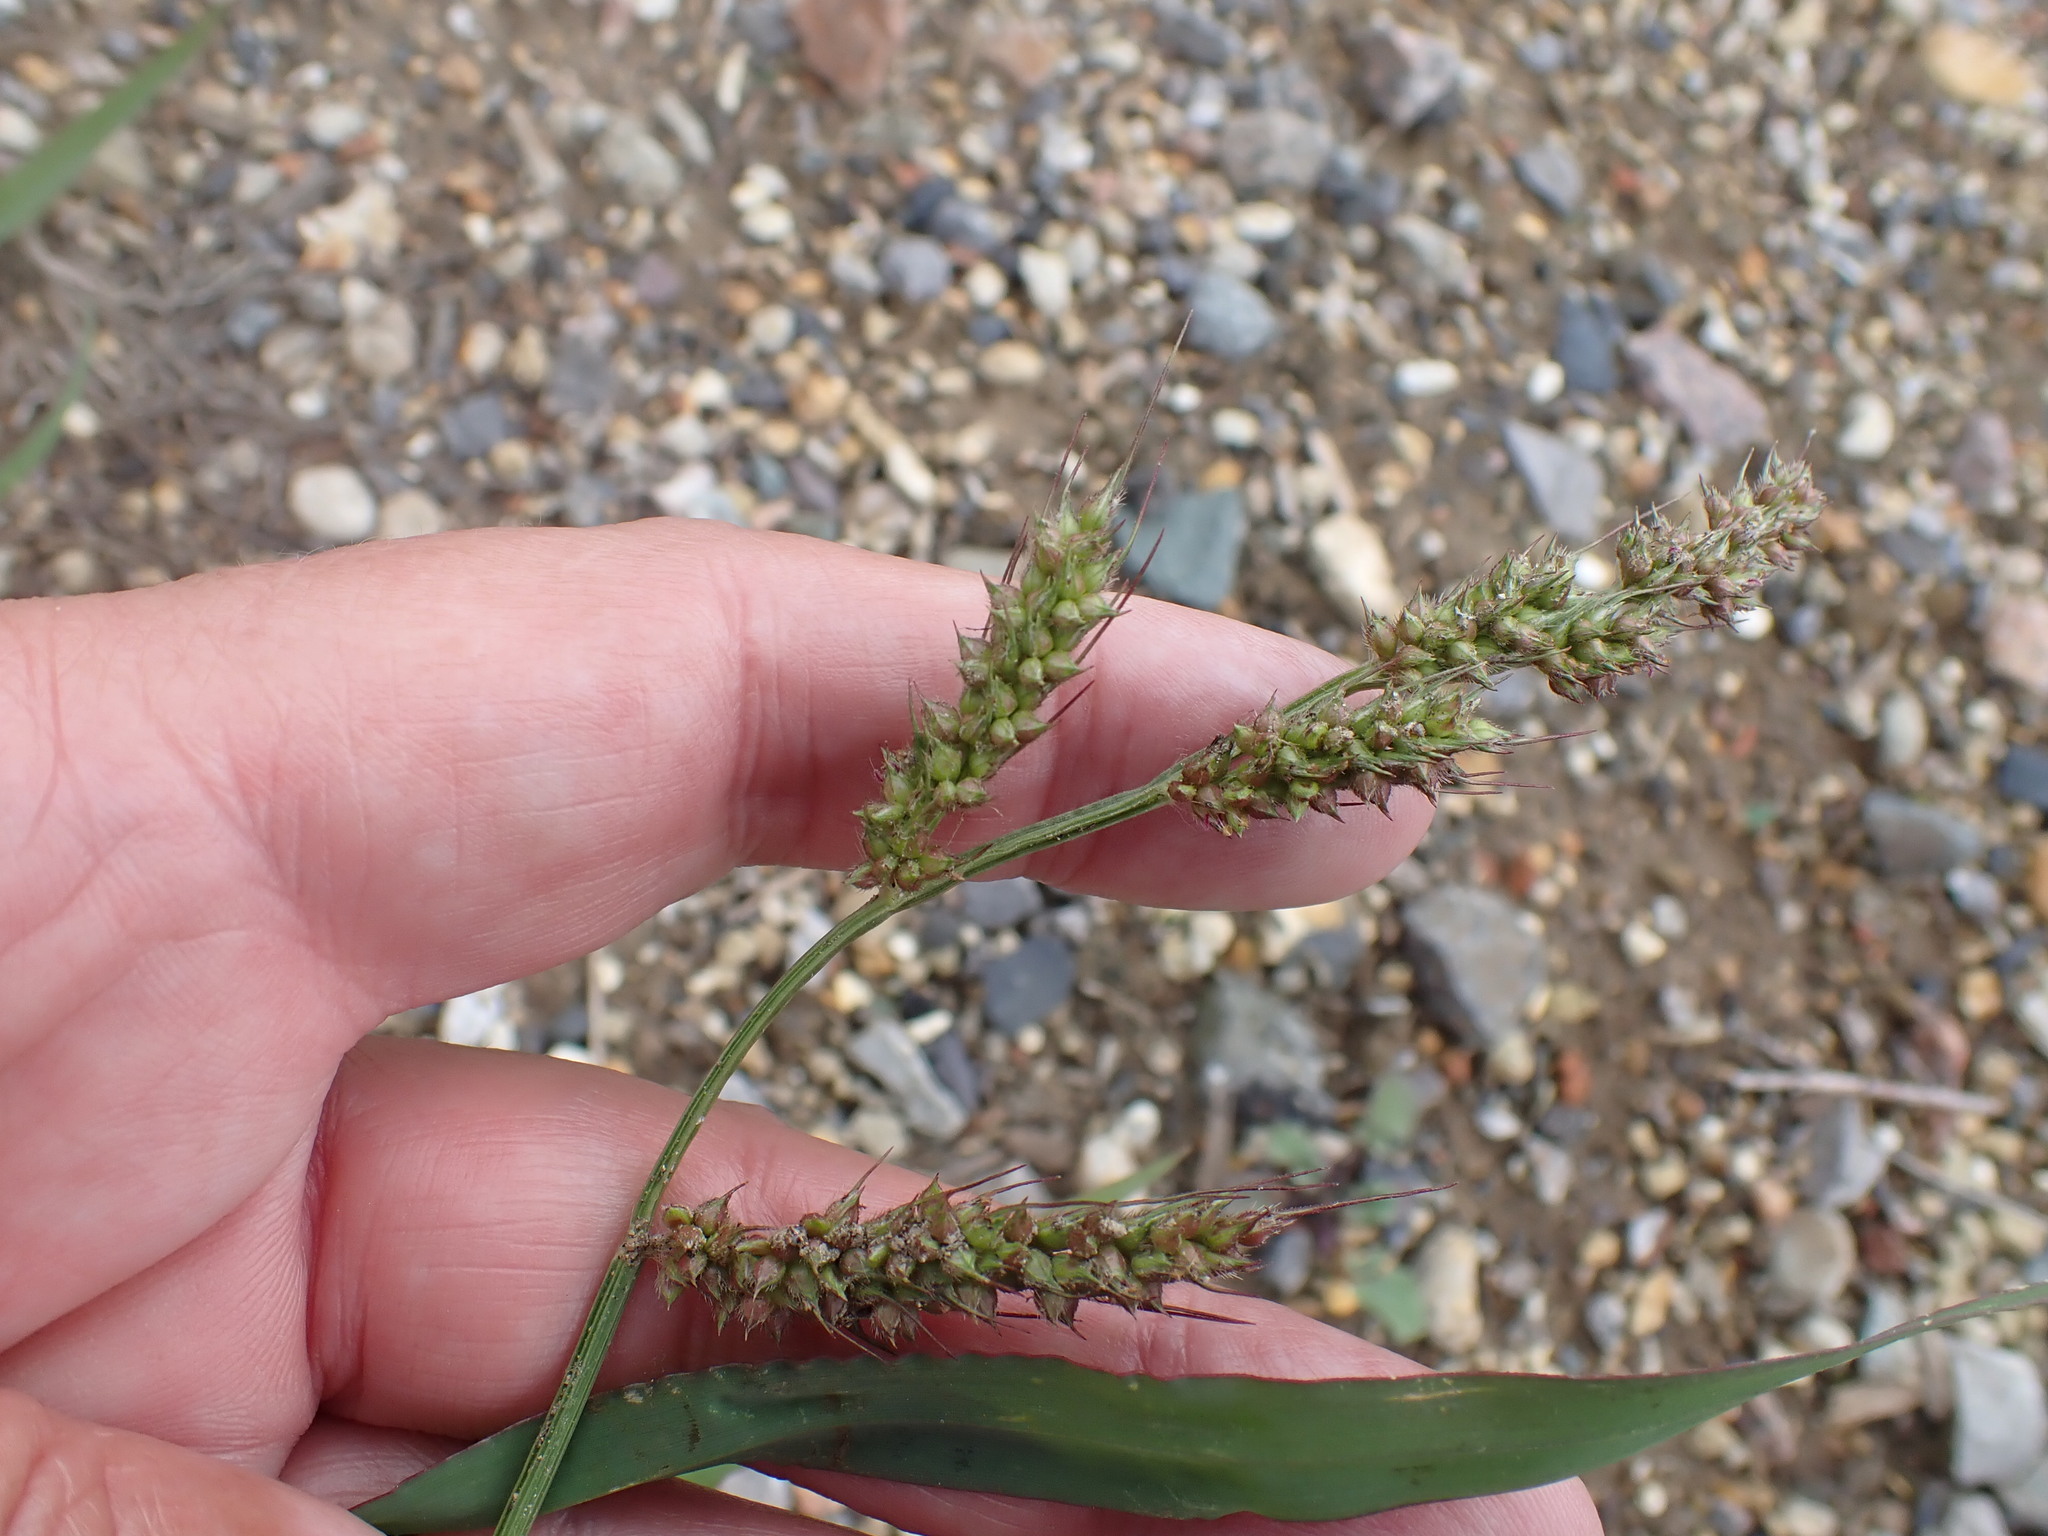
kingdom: Plantae
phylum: Tracheophyta
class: Liliopsida
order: Poales
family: Poaceae
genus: Echinochloa
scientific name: Echinochloa crus-galli
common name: Cockspur
